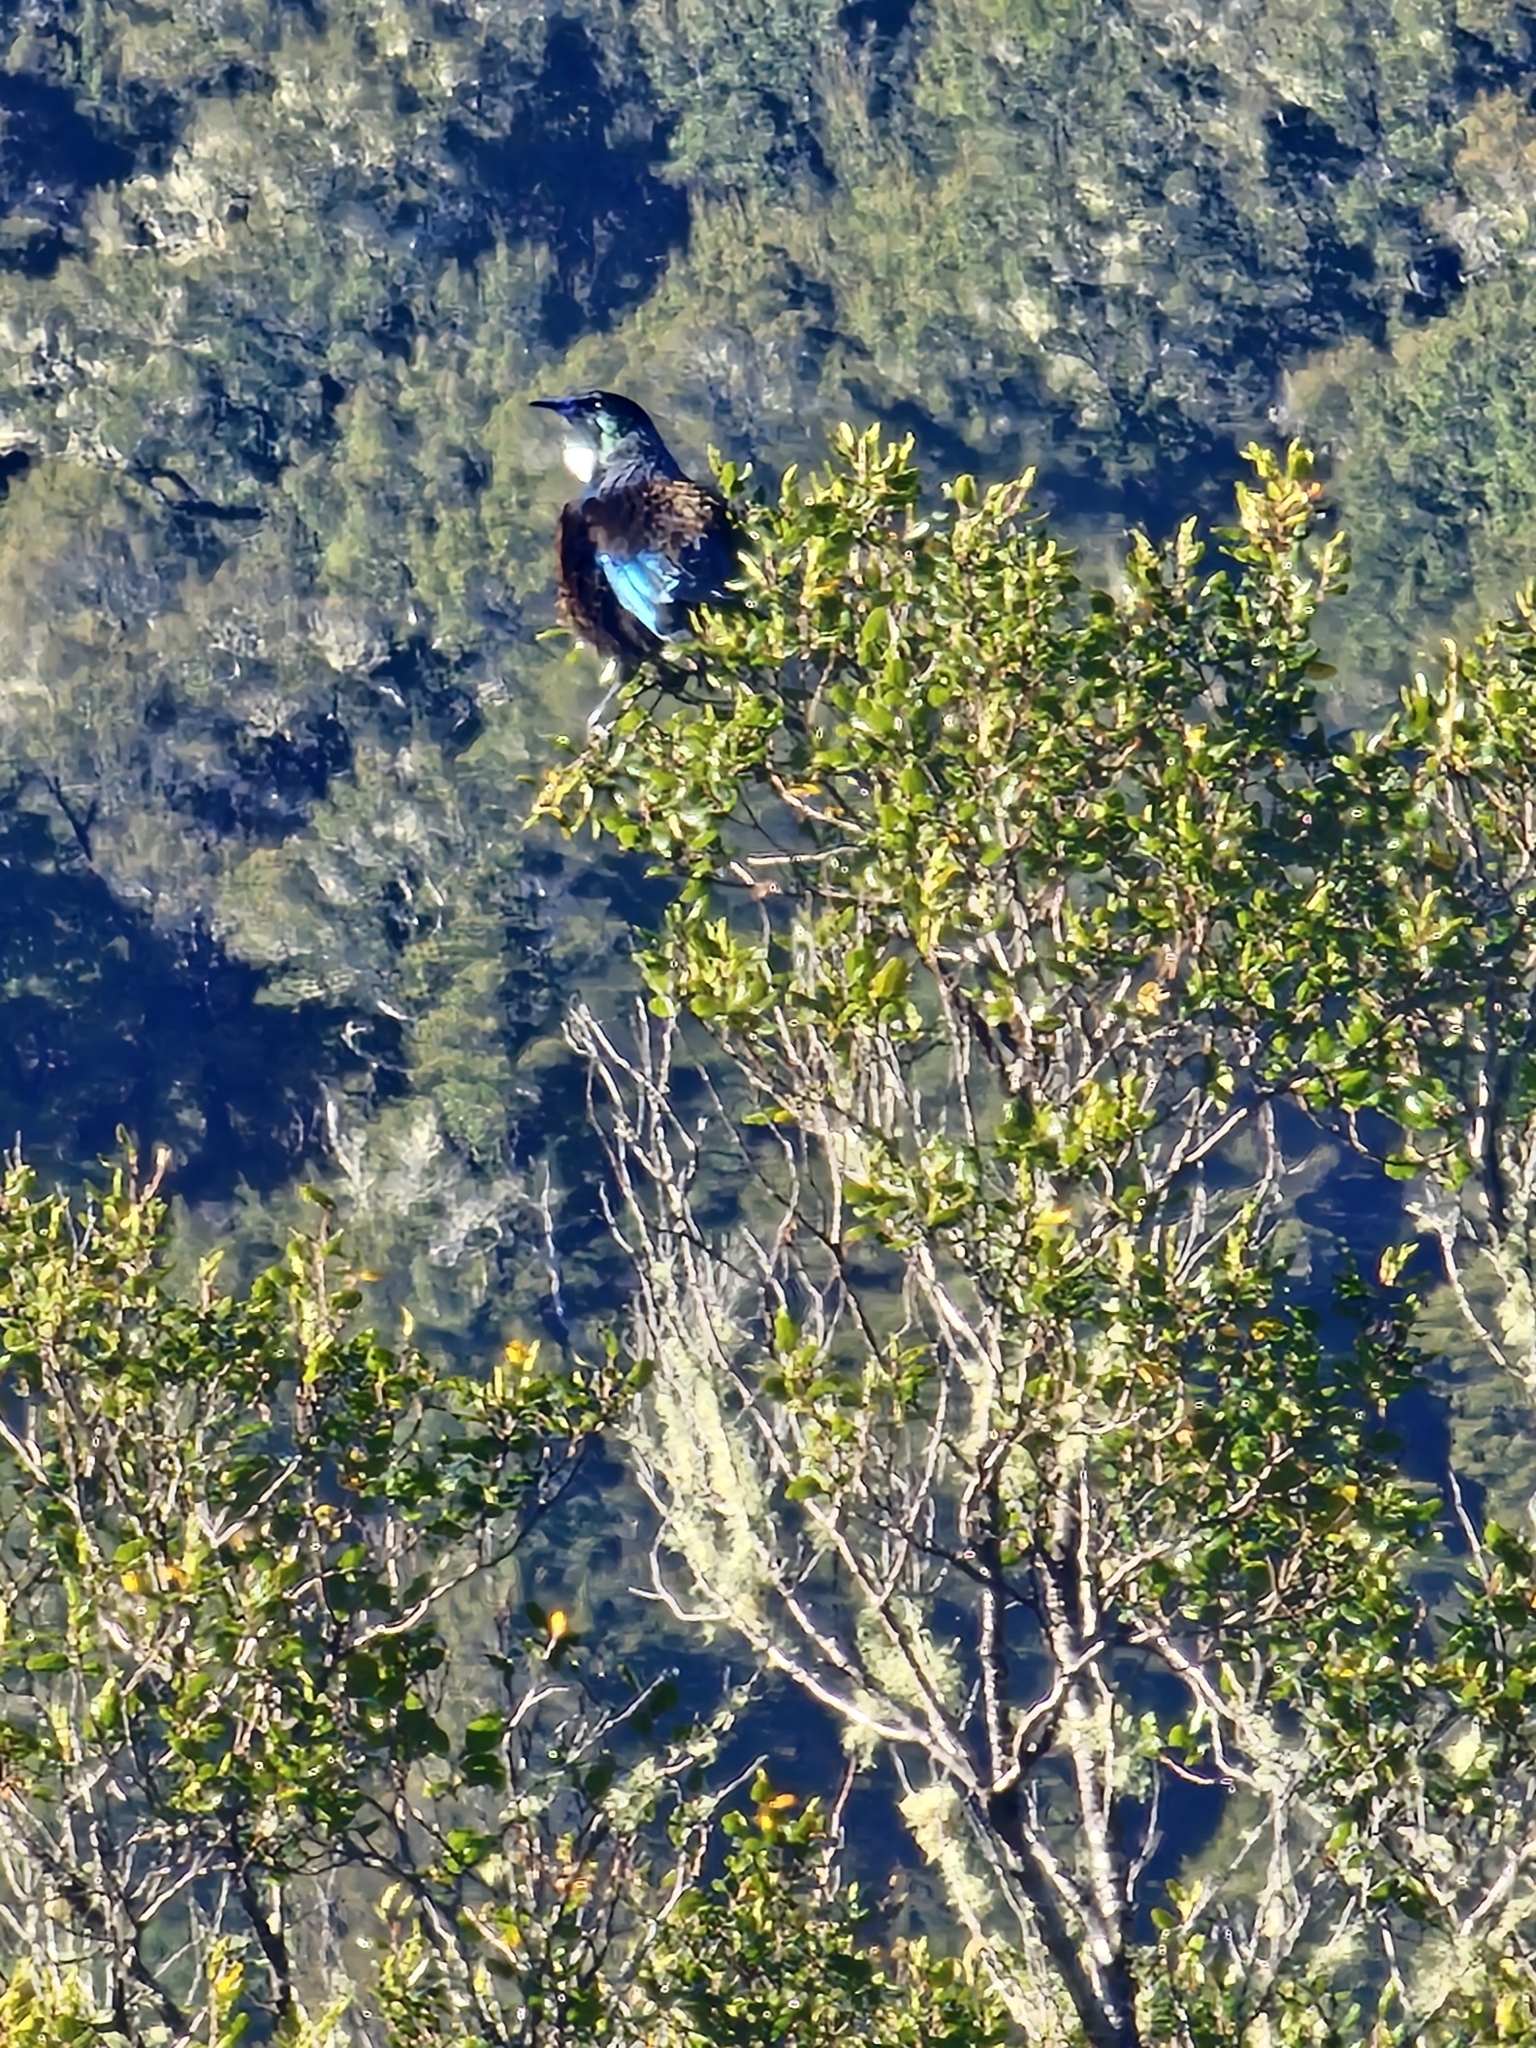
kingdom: Animalia
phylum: Chordata
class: Aves
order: Passeriformes
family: Meliphagidae
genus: Prosthemadera
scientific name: Prosthemadera novaeseelandiae
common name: Tui
